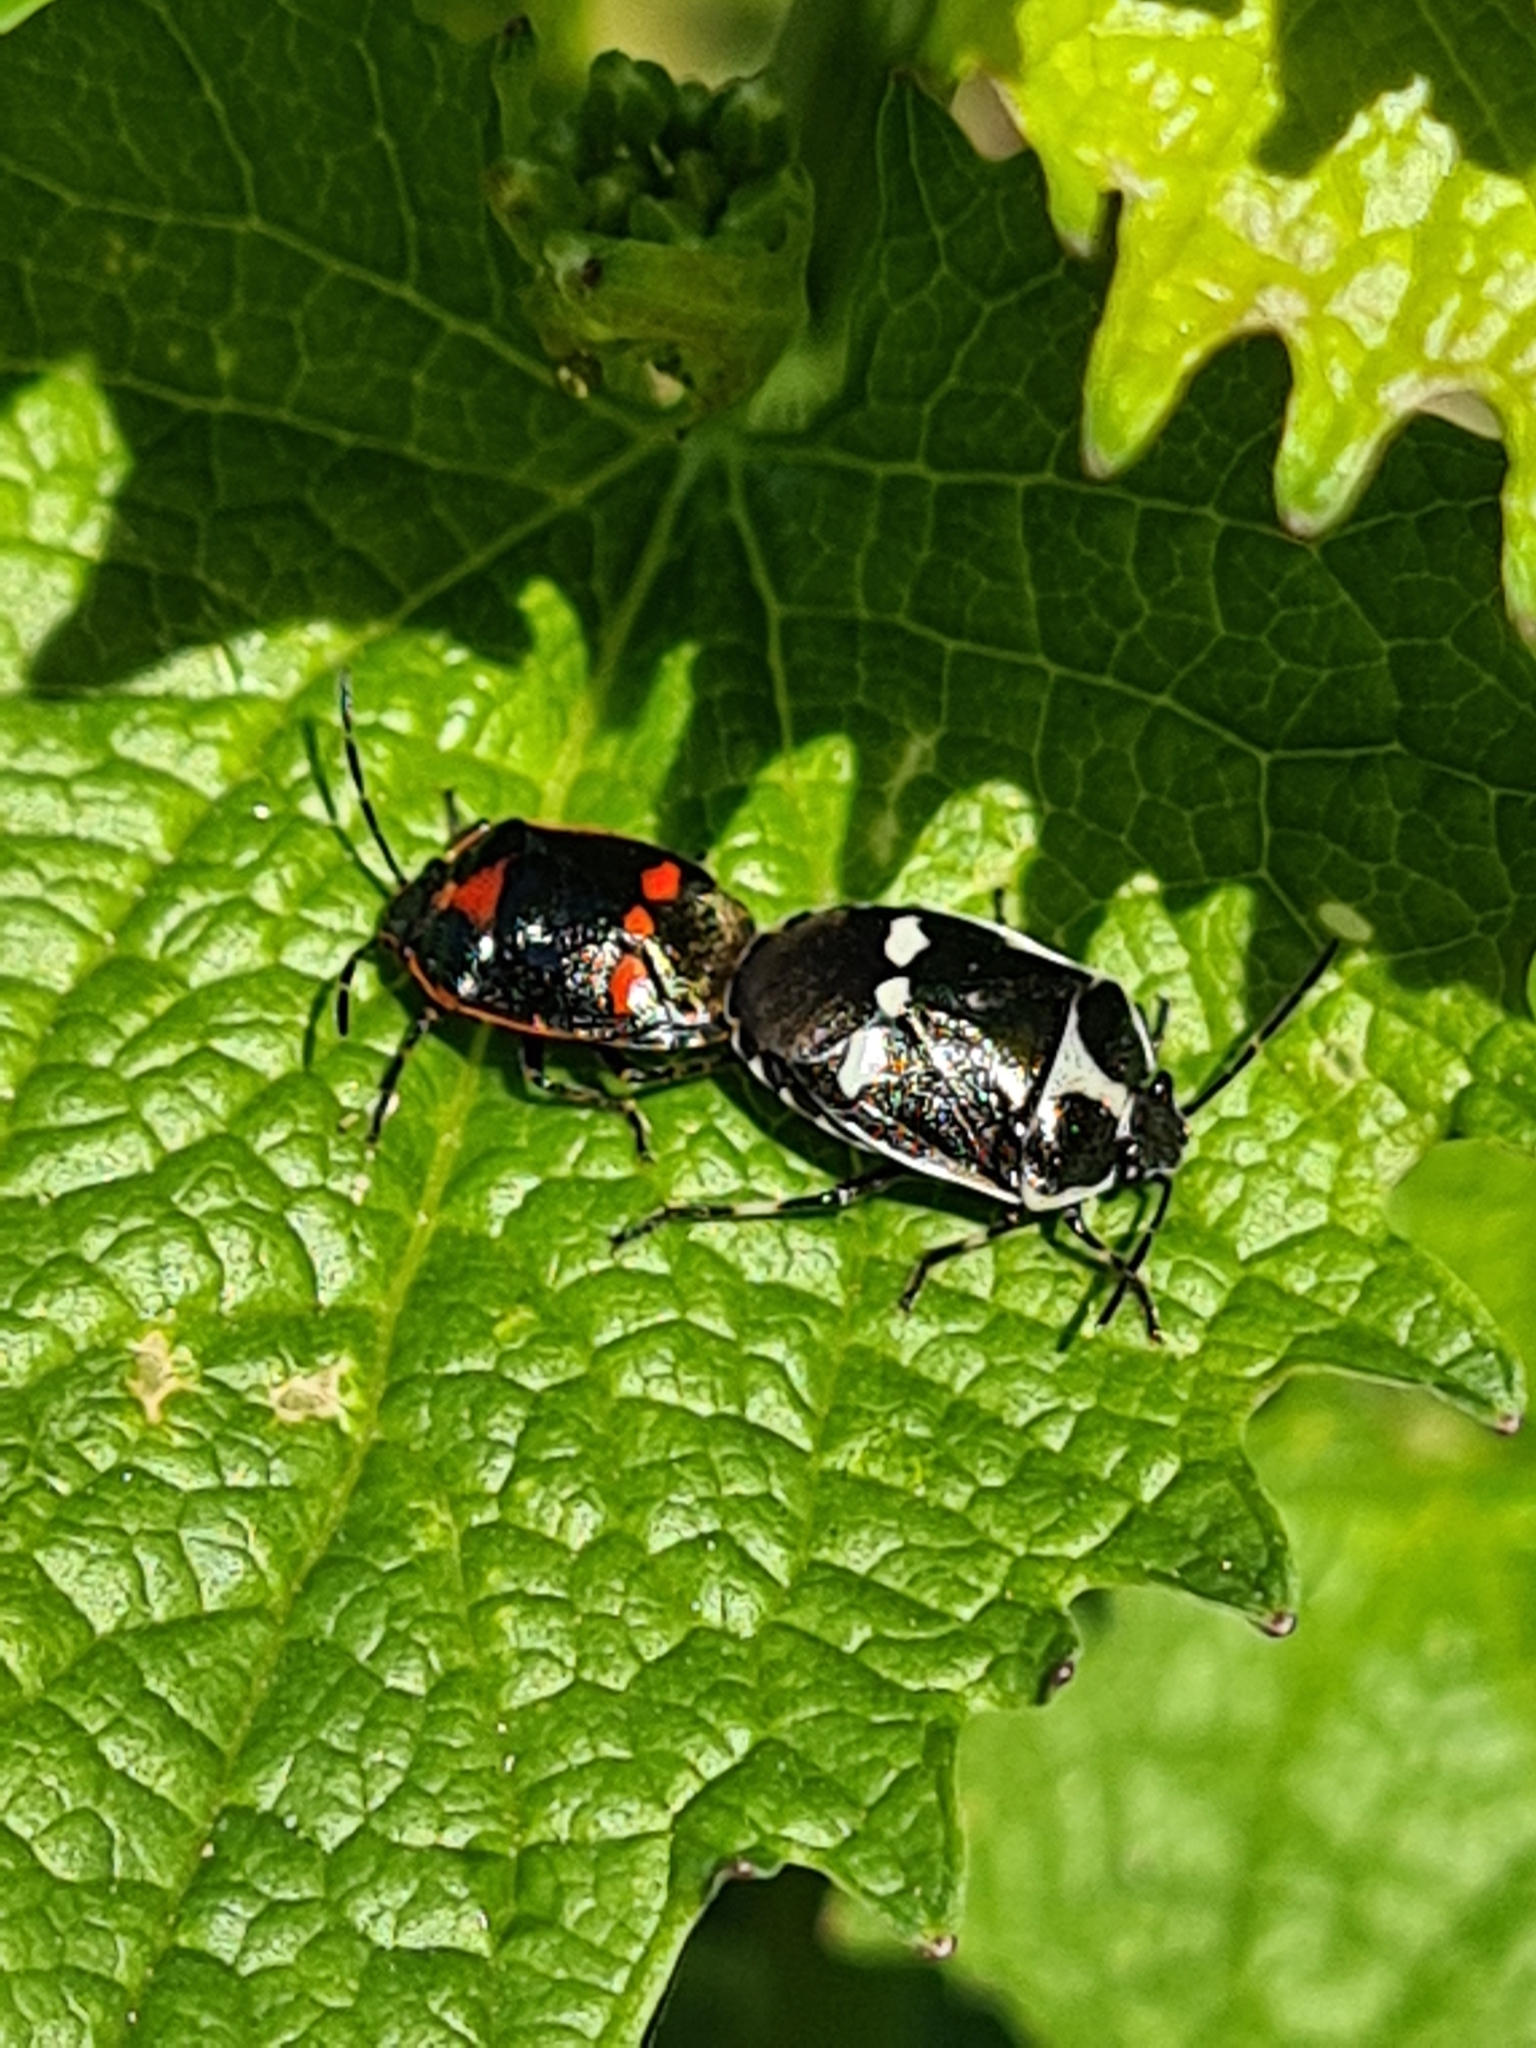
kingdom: Animalia
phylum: Arthropoda
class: Insecta
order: Hemiptera
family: Pentatomidae
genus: Eurydema
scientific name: Eurydema oleracea
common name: Cabbage bug
